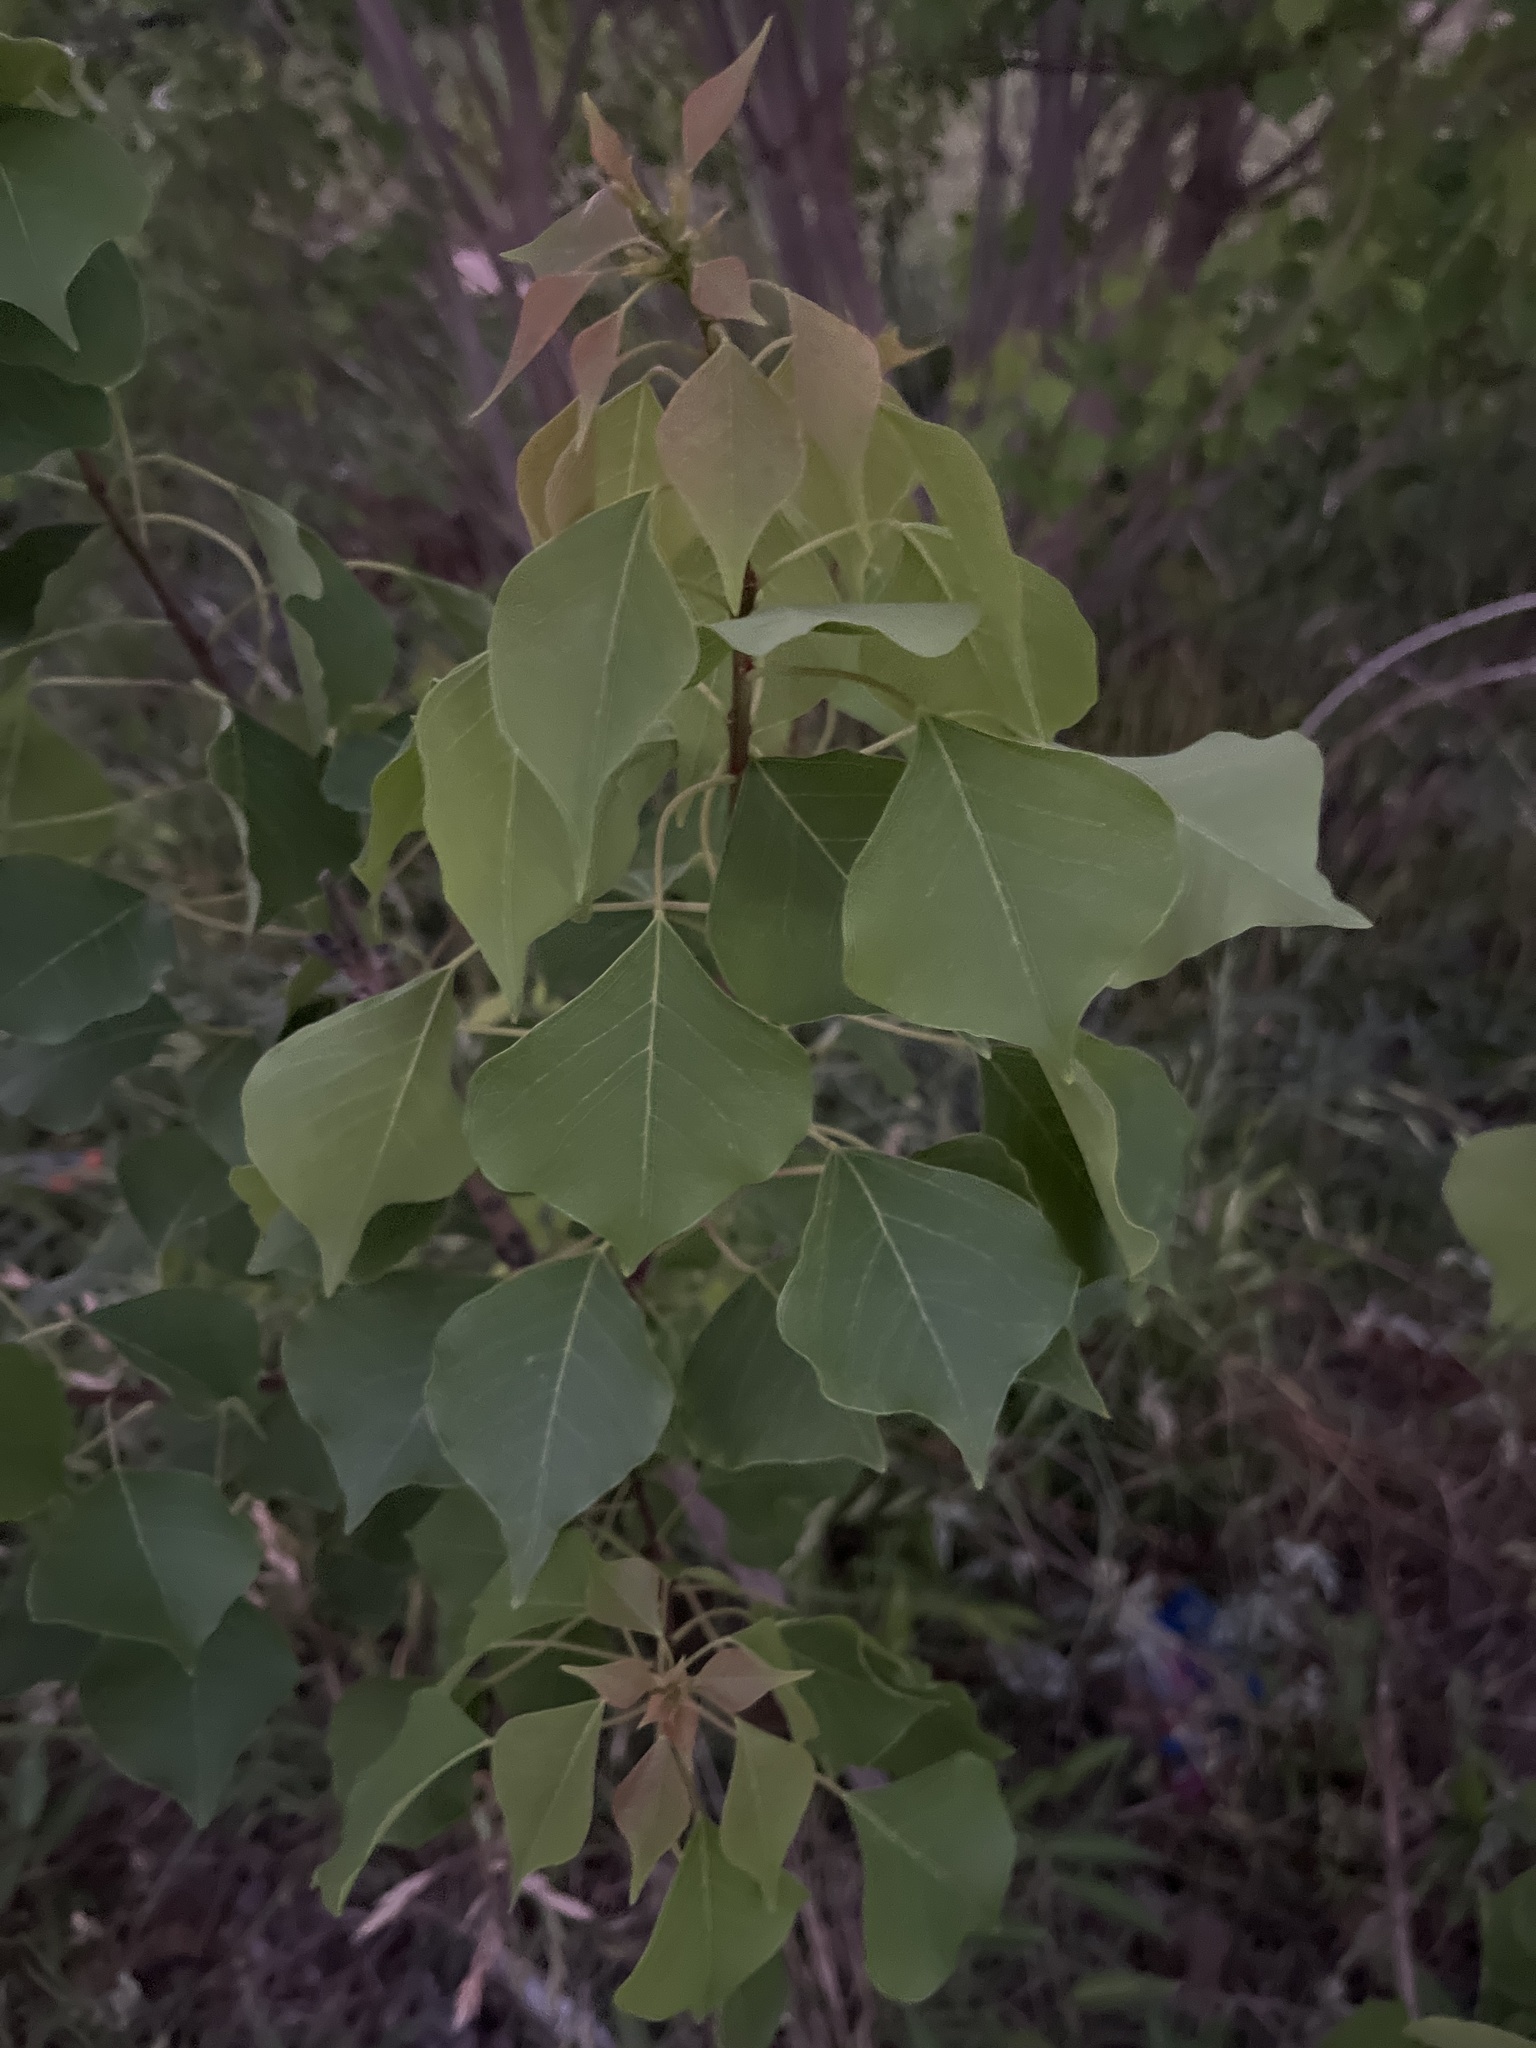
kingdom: Plantae
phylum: Tracheophyta
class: Magnoliopsida
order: Malpighiales
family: Euphorbiaceae
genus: Triadica
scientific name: Triadica sebifera
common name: Chinese tallow
